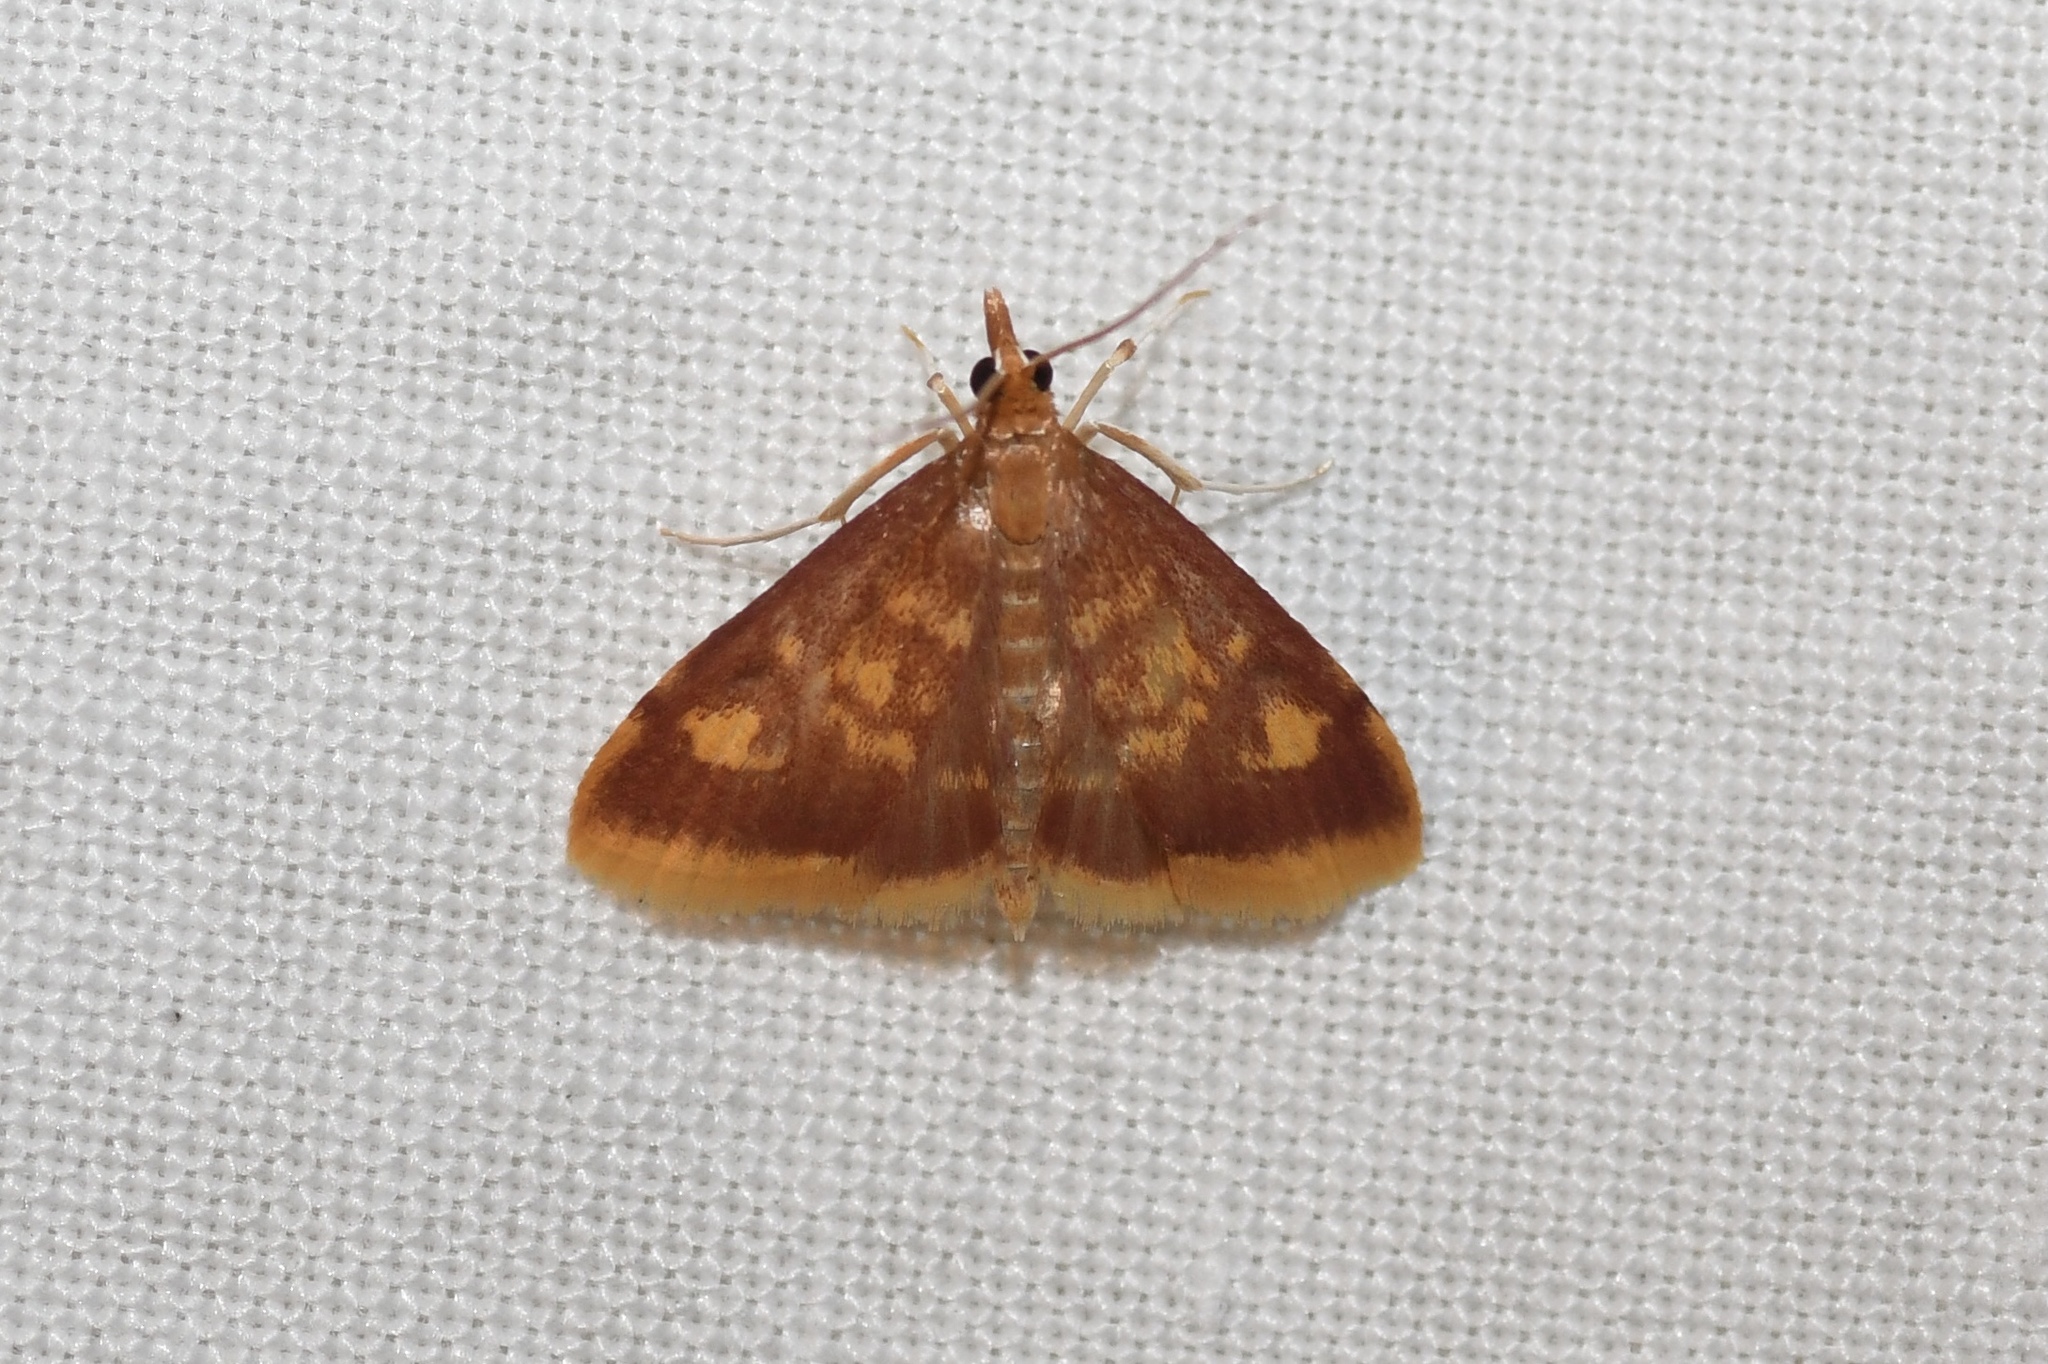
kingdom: Animalia
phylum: Arthropoda
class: Insecta
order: Lepidoptera
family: Crambidae
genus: Pyrausta
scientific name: Pyrausta acrionalis
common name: Mint-loving pyrausta moth
